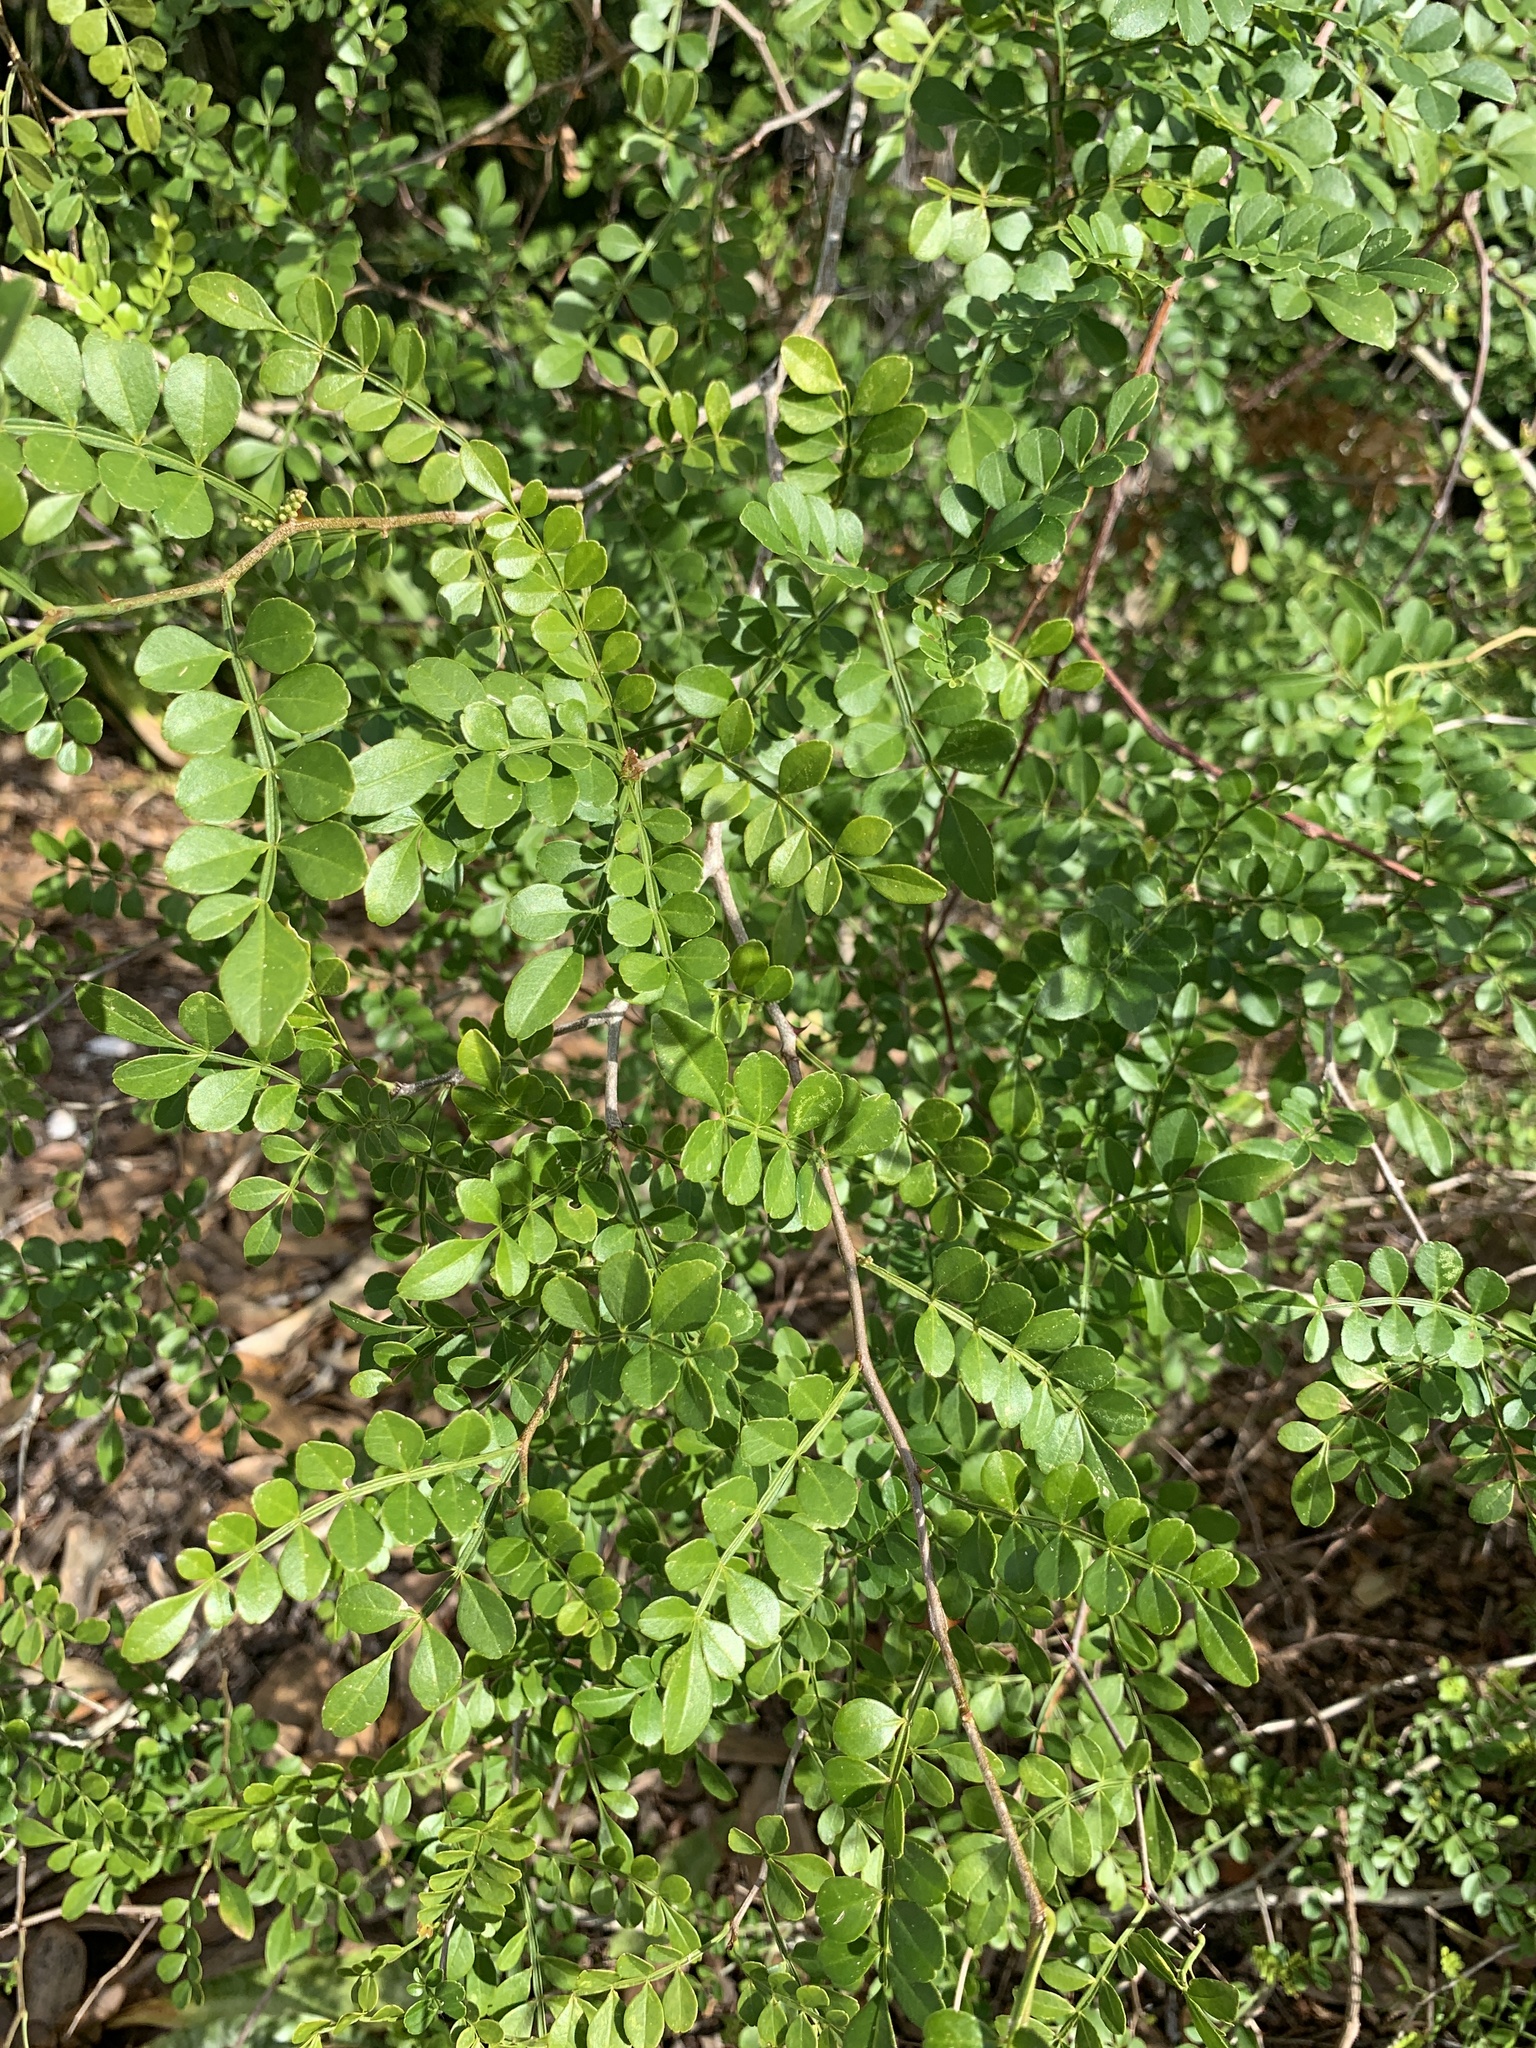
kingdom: Plantae
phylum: Tracheophyta
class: Magnoliopsida
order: Sapindales
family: Rutaceae
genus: Zanthoxylum
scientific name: Zanthoxylum fagara
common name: Lime prickly-ash
